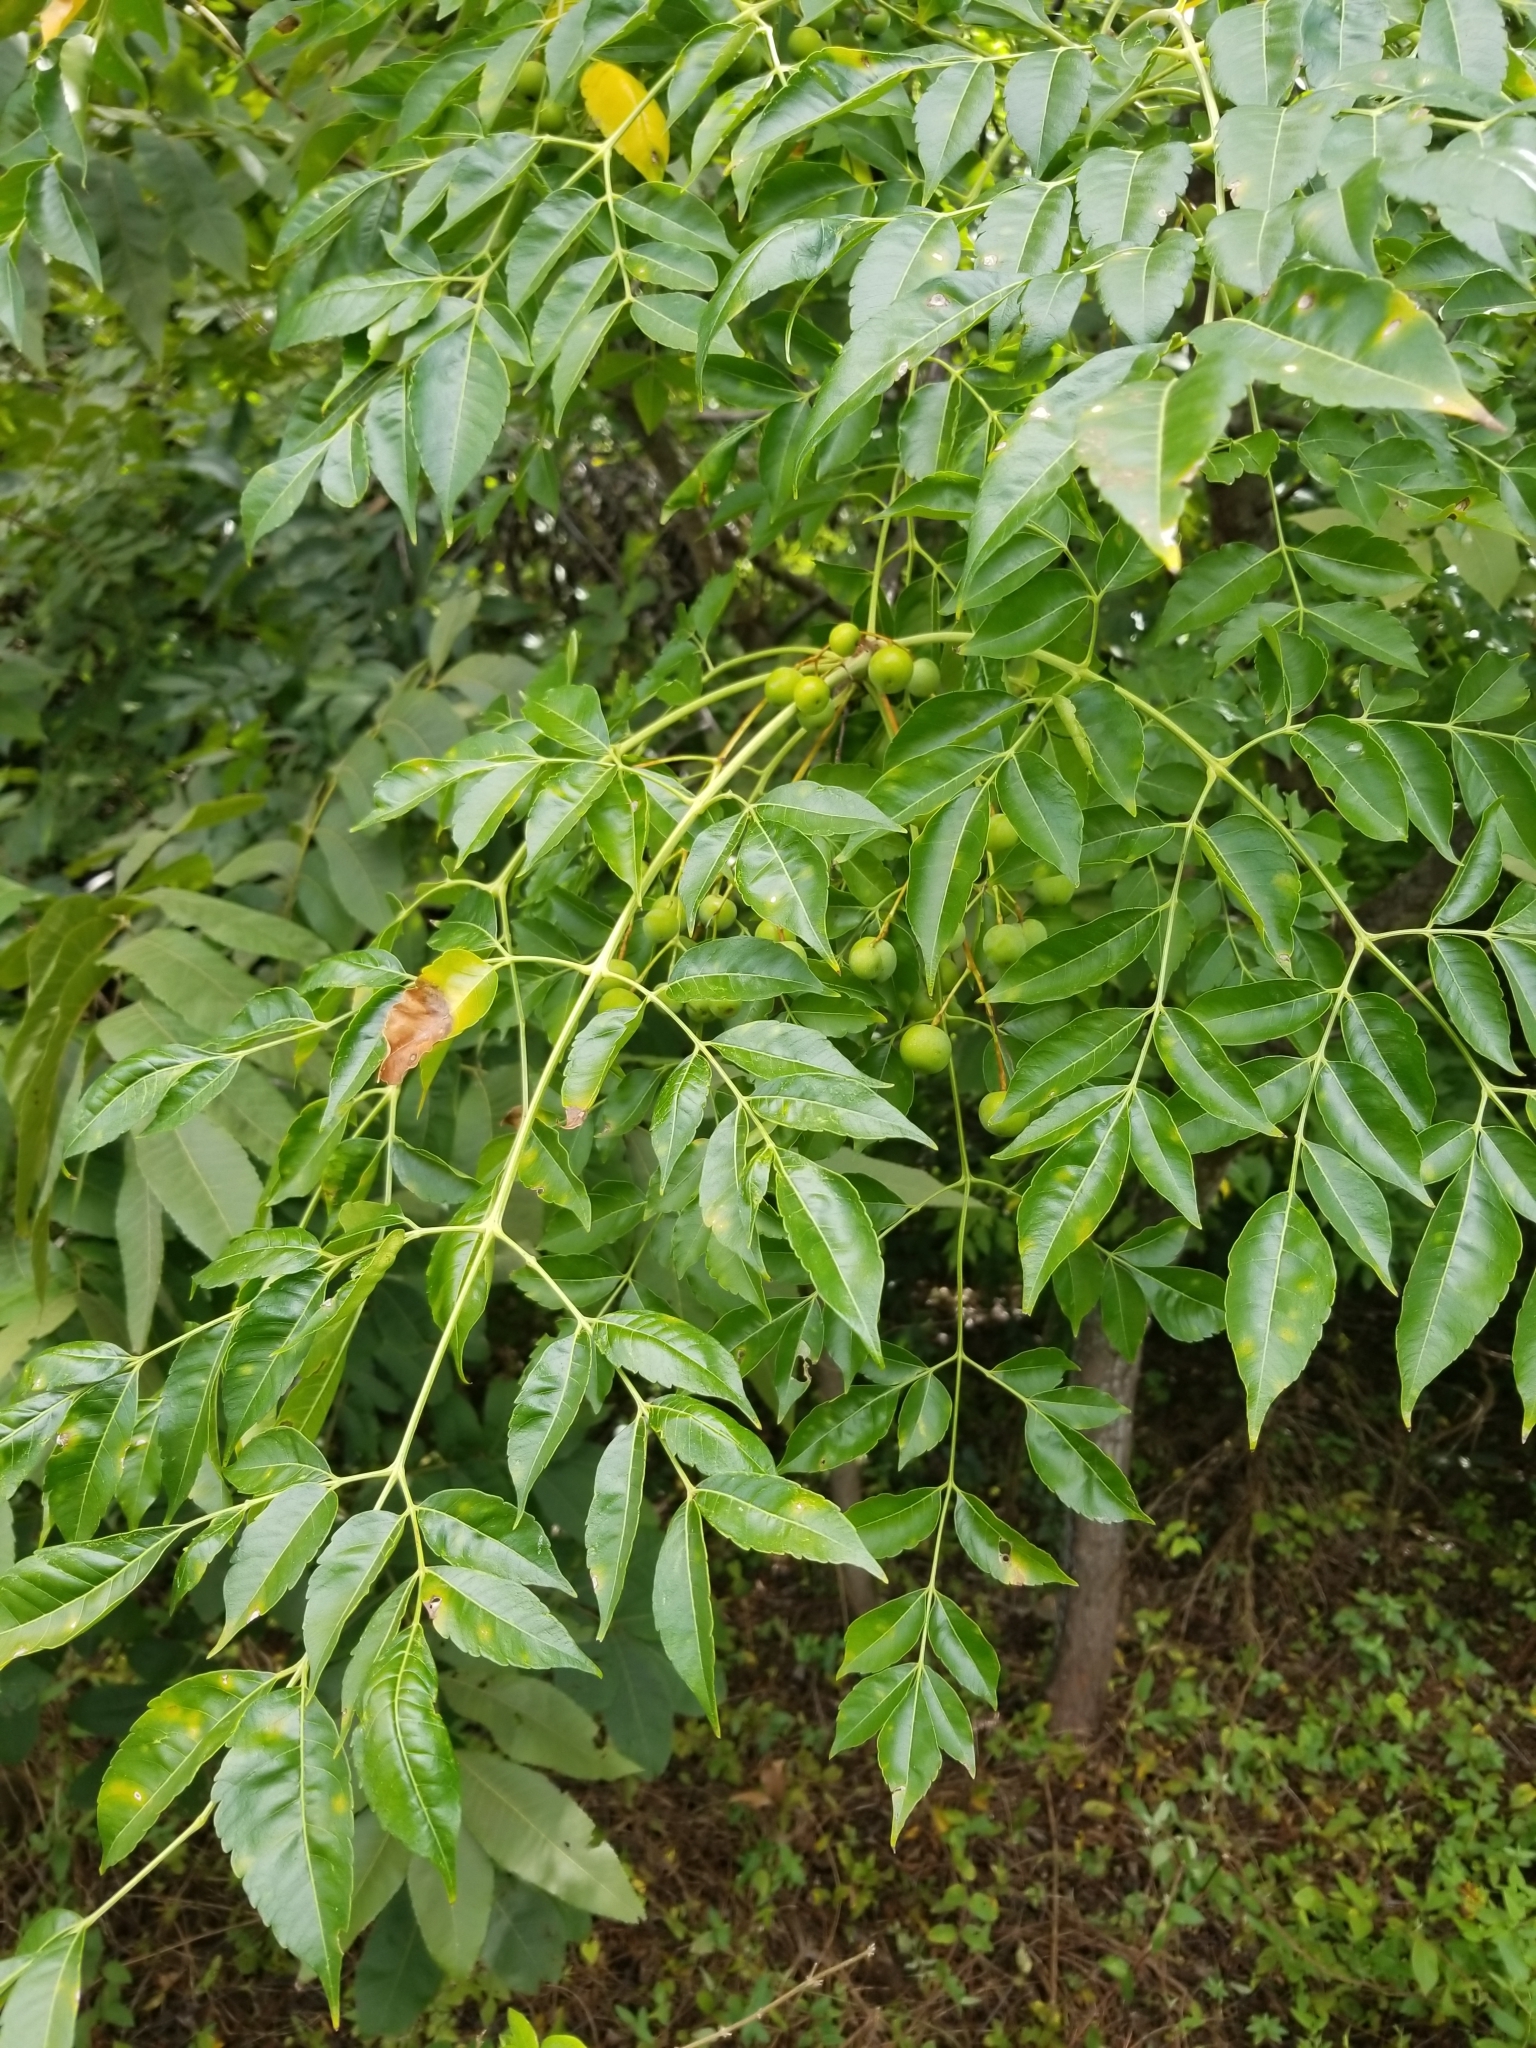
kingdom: Plantae
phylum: Tracheophyta
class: Magnoliopsida
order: Sapindales
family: Meliaceae
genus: Melia
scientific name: Melia azedarach
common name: Chinaberrytree
